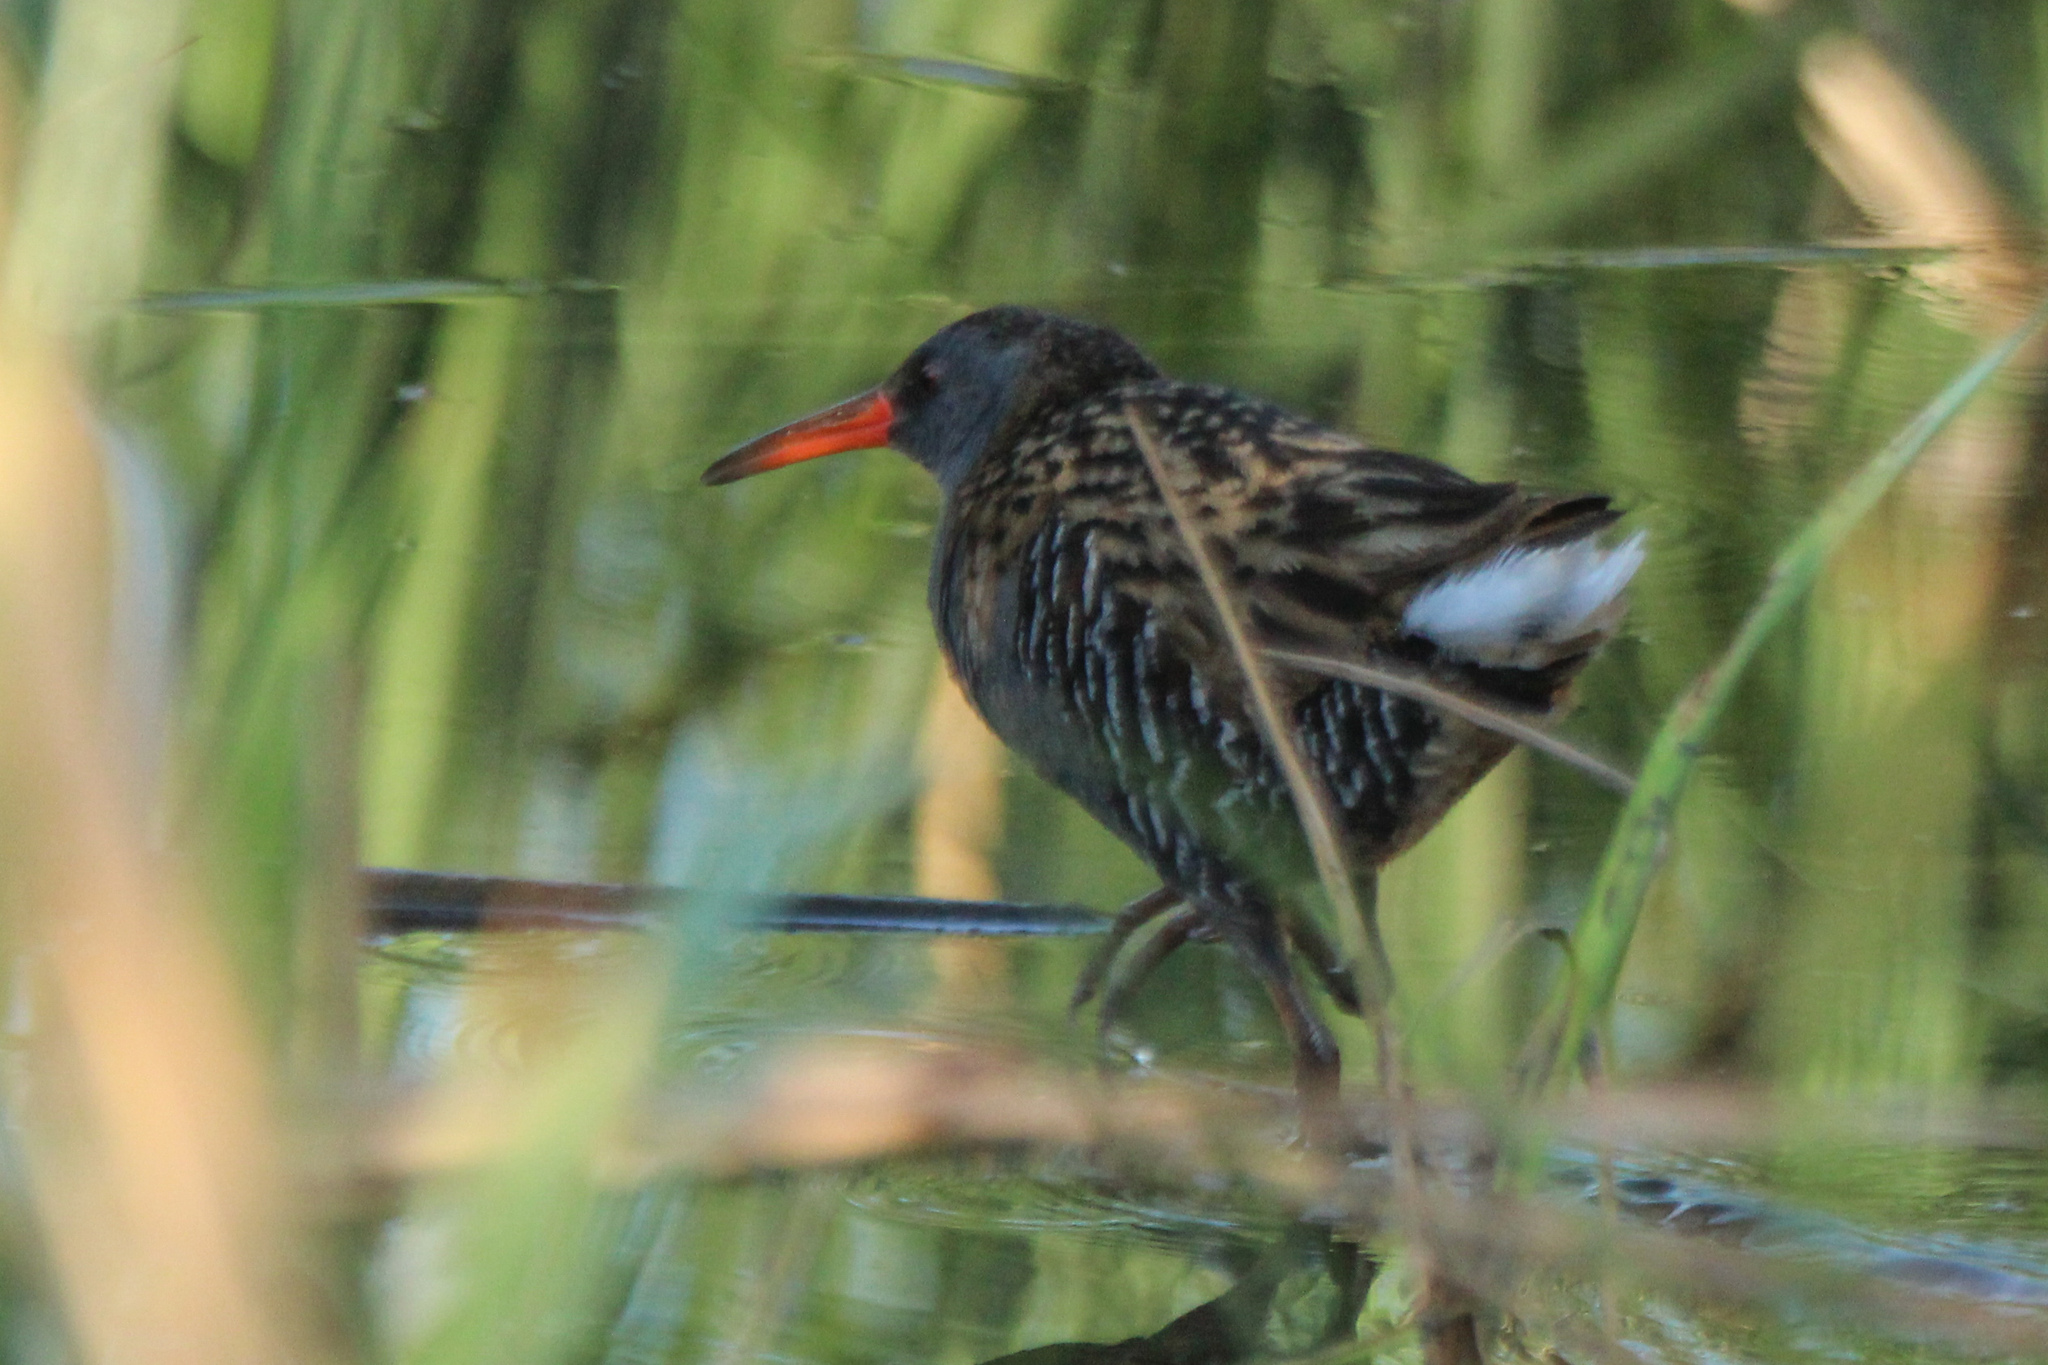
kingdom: Animalia
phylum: Chordata
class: Aves
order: Gruiformes
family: Rallidae
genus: Rallus
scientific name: Rallus aquaticus
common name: Water rail
